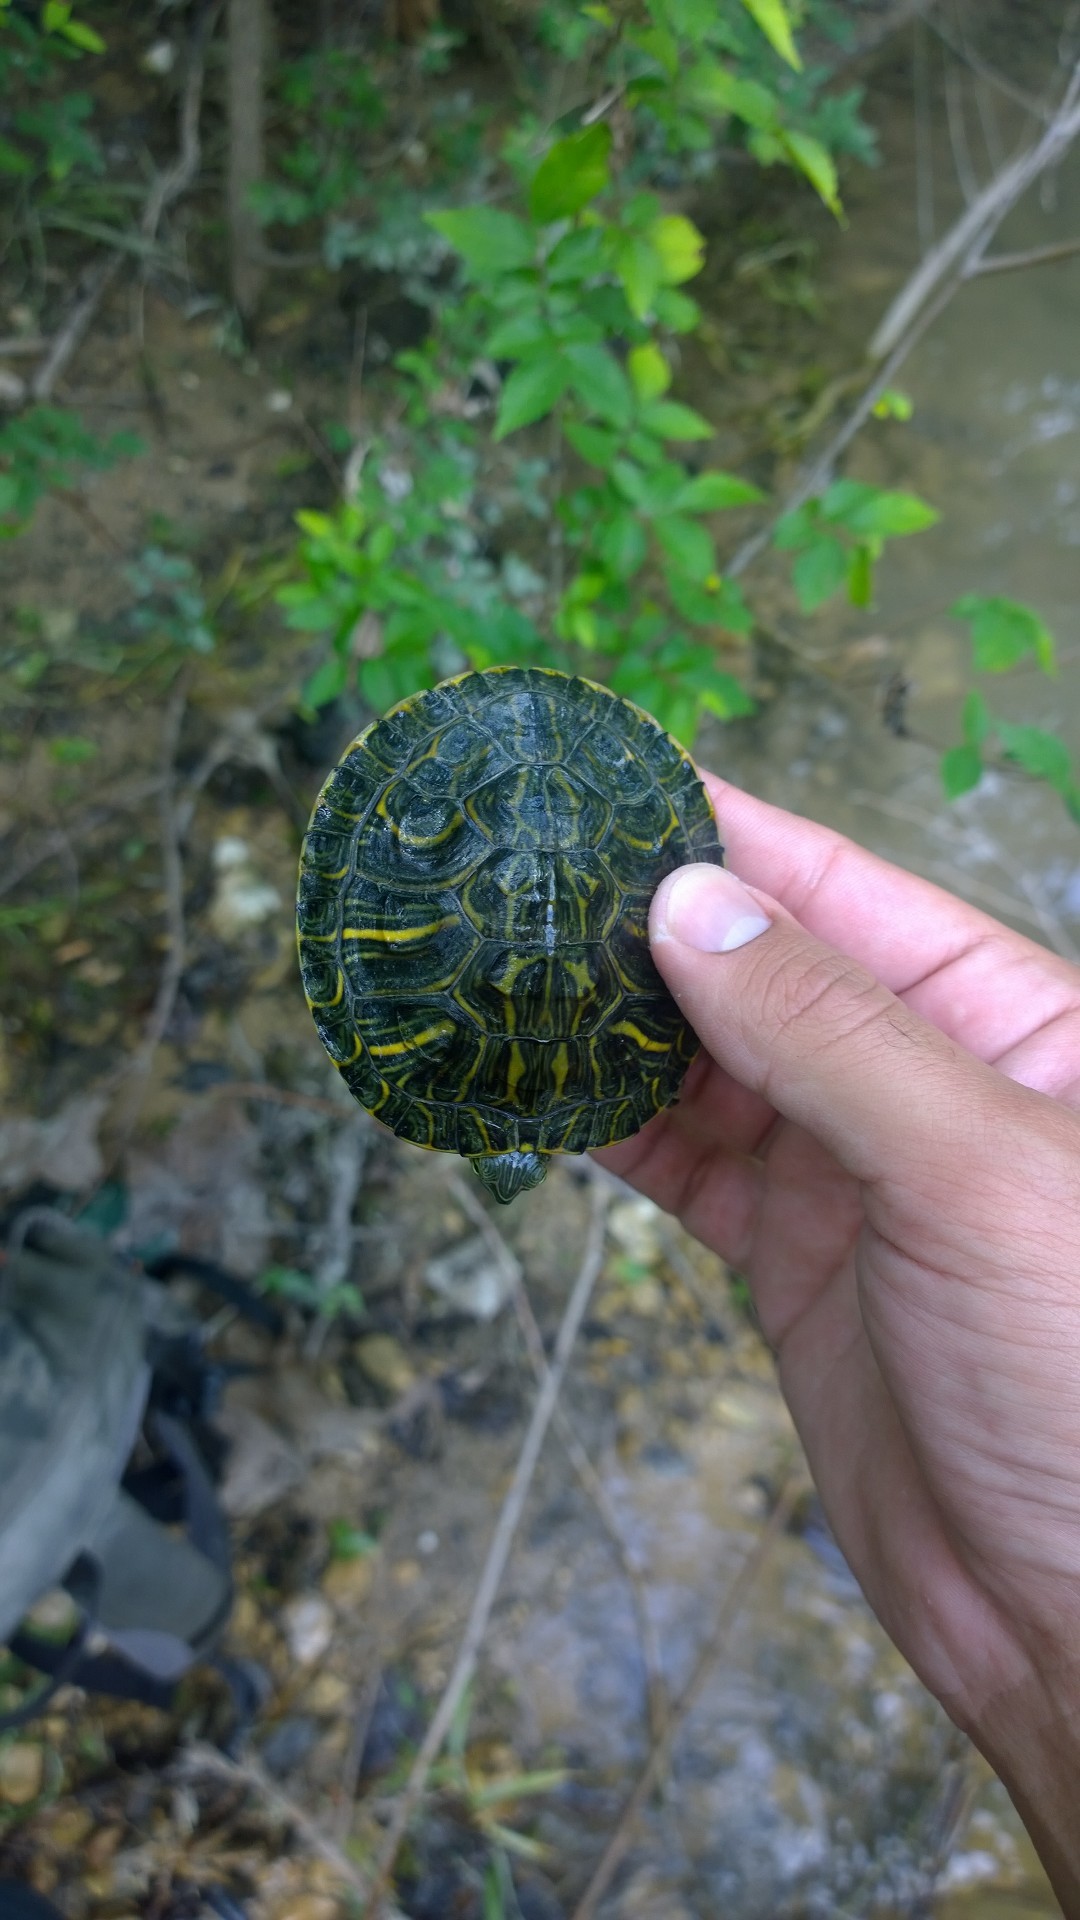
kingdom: Animalia
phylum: Chordata
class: Testudines
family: Emydidae
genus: Trachemys
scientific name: Trachemys scripta
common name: Slider
